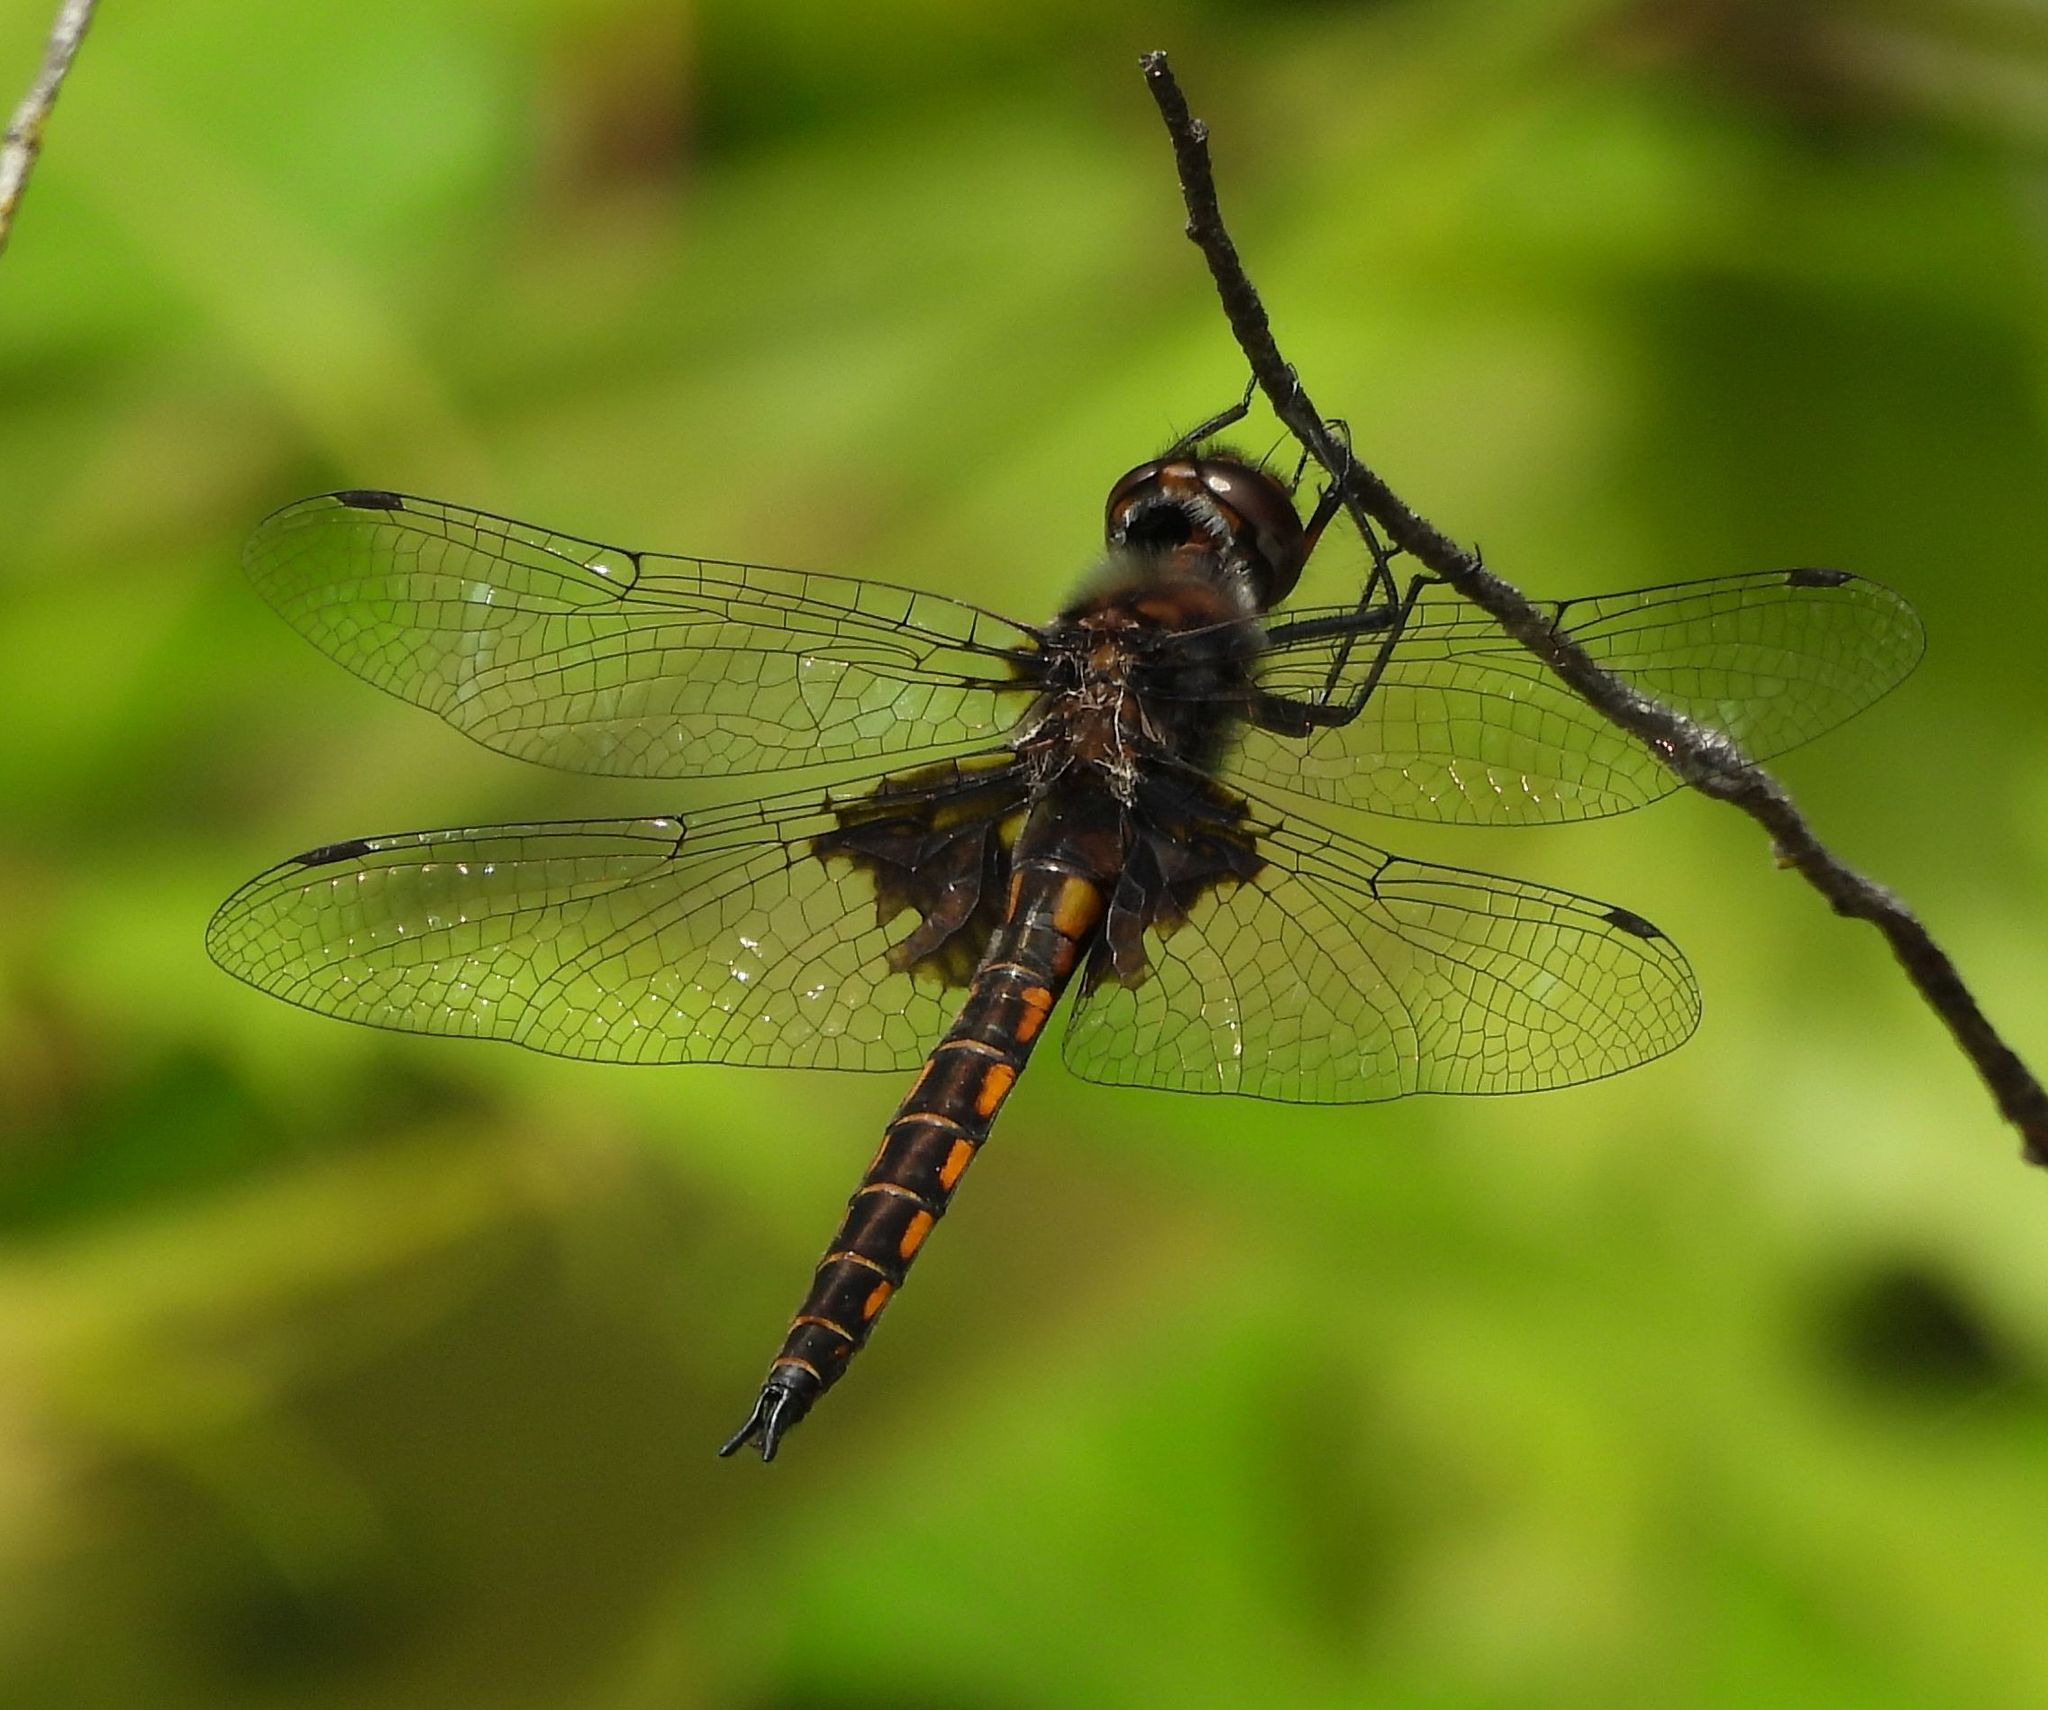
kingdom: Animalia
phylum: Arthropoda
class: Insecta
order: Odonata
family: Corduliidae
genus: Epitheca
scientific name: Epitheca cynosura
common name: Common baskettail
